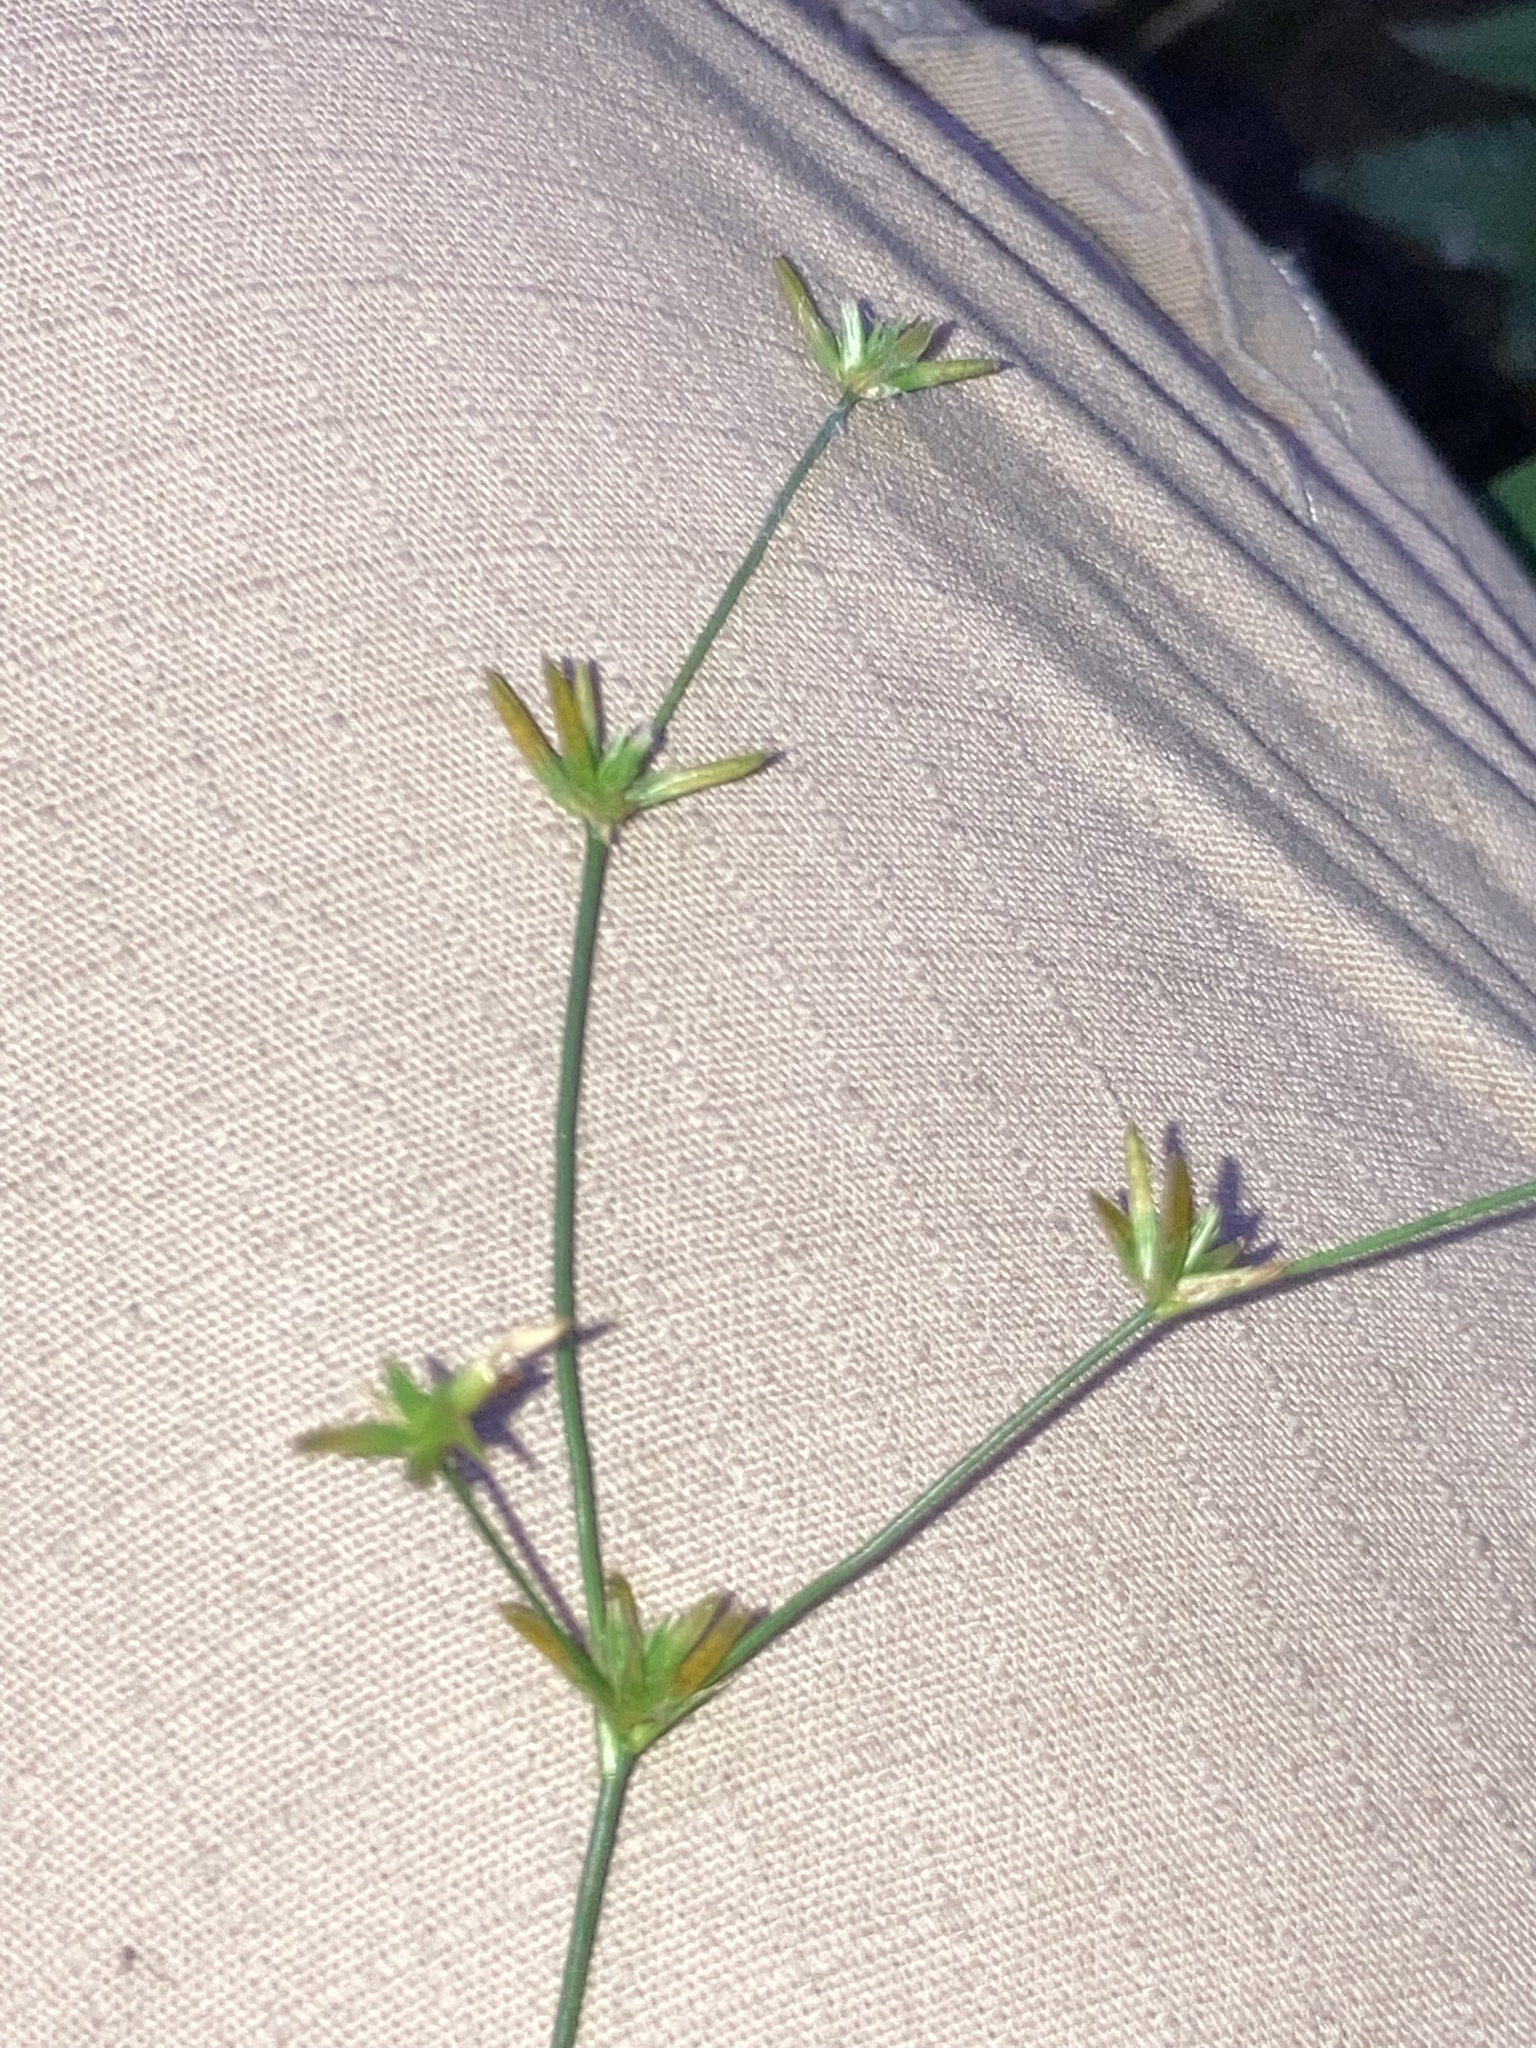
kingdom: Plantae
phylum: Tracheophyta
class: Liliopsida
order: Poales
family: Juncaceae
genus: Juncus
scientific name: Juncus diffusissimus
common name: Slimpod rush
